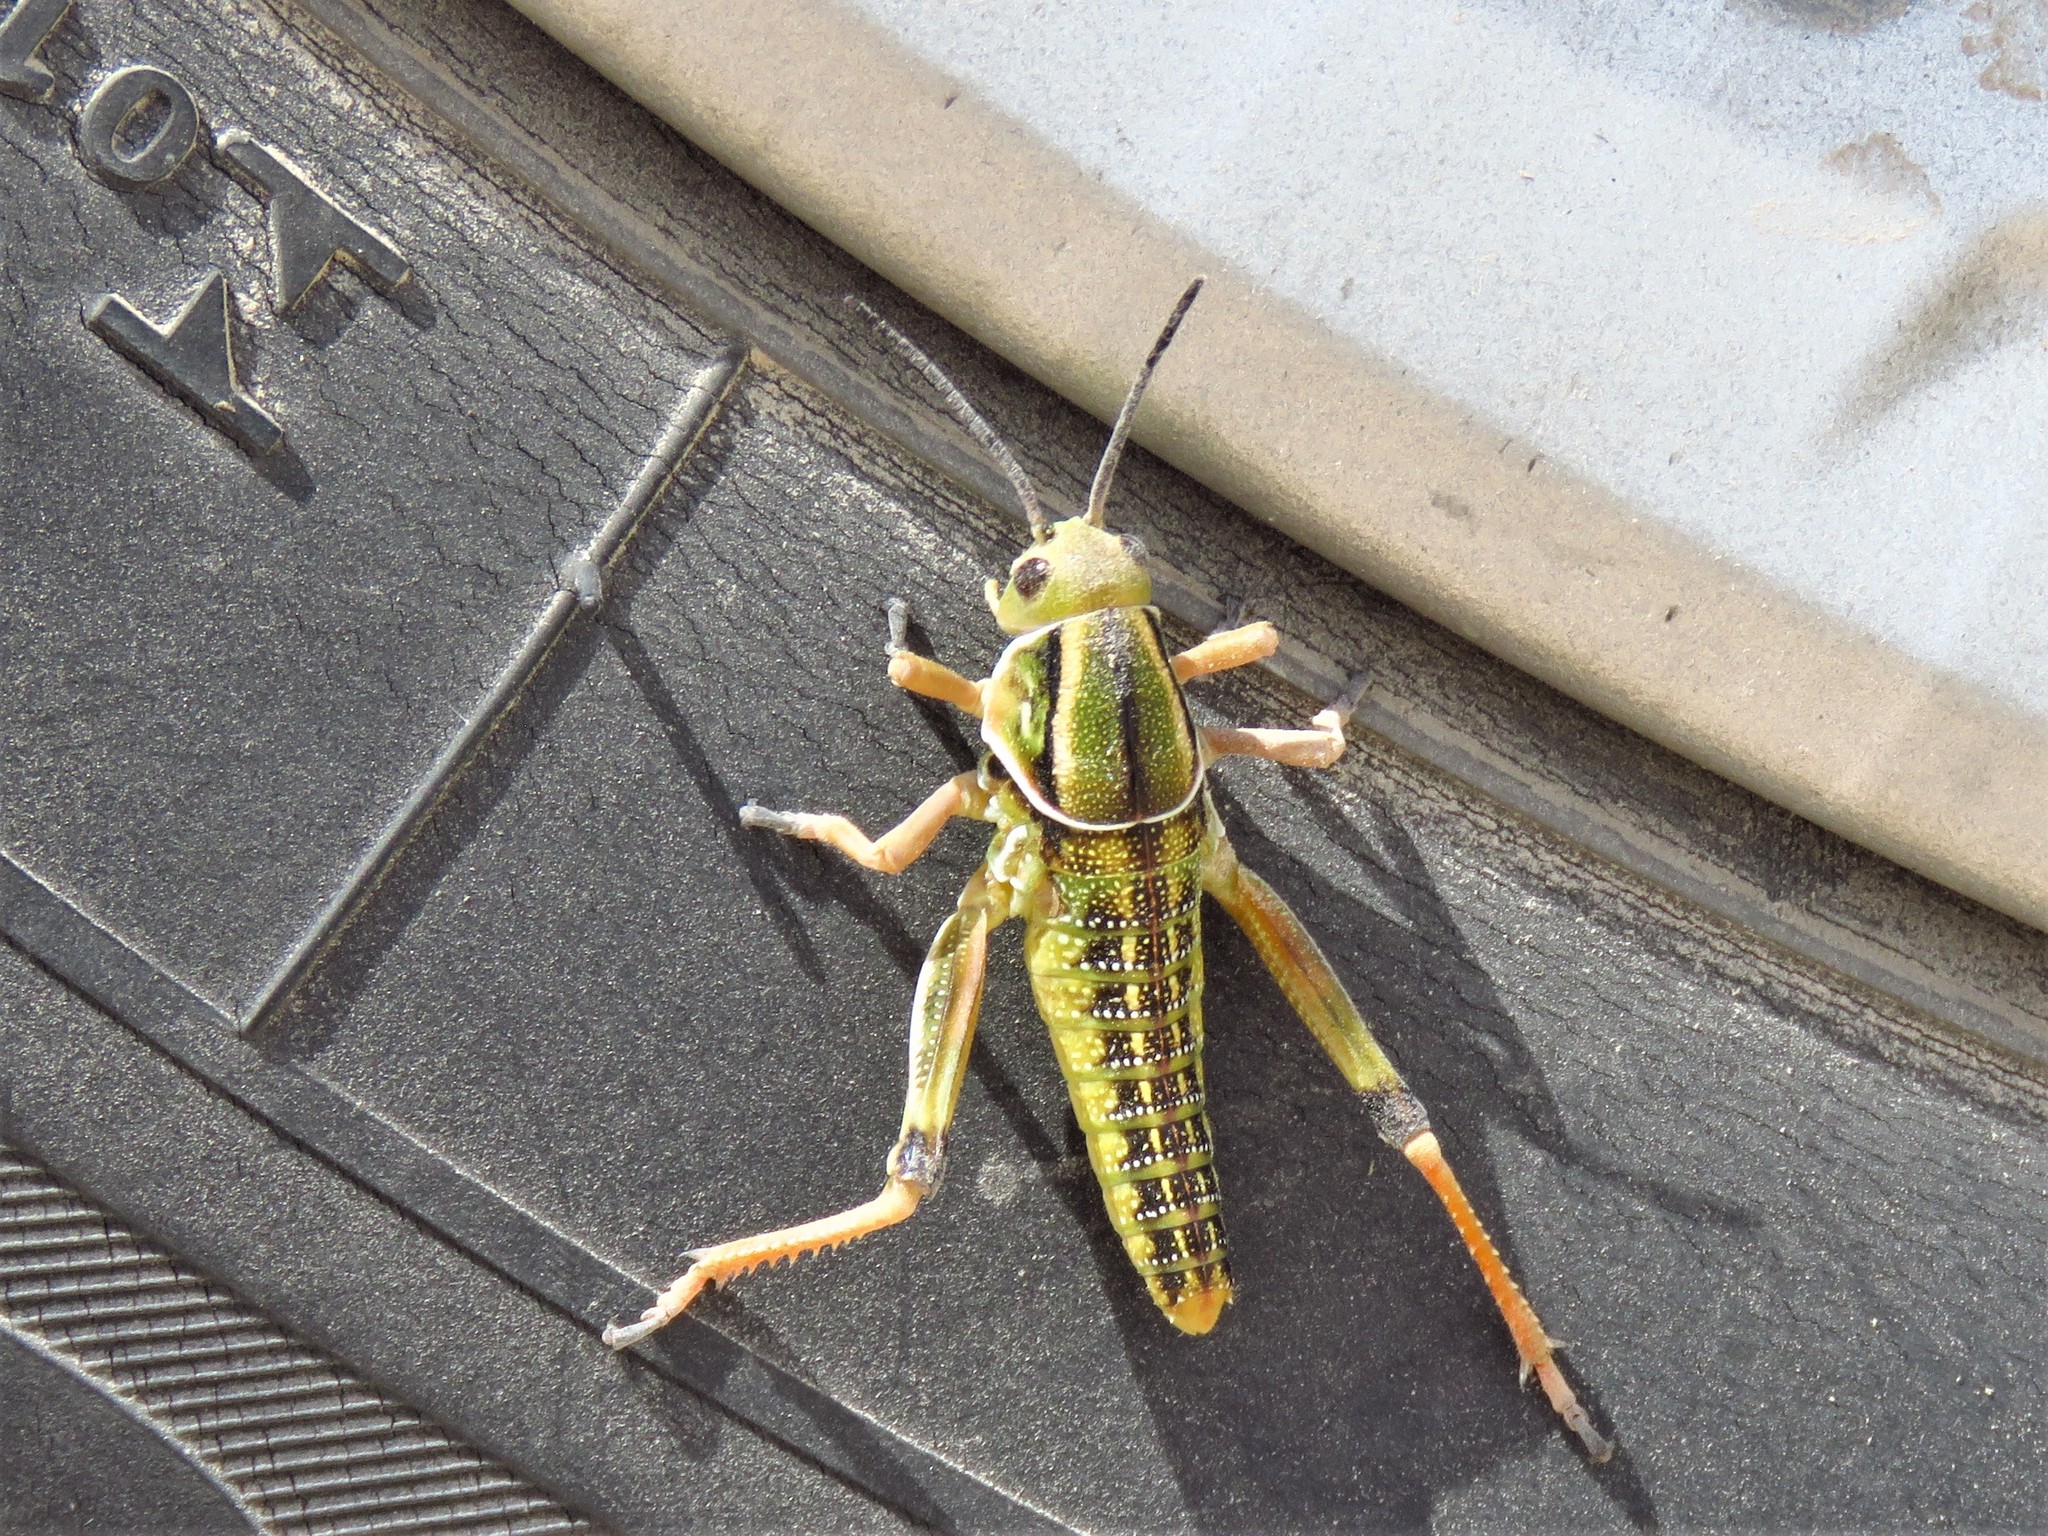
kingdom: Animalia
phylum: Arthropoda
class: Insecta
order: Orthoptera
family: Romaleidae
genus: Brachystola
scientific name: Brachystola magna
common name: Plains lubber grasshopper
